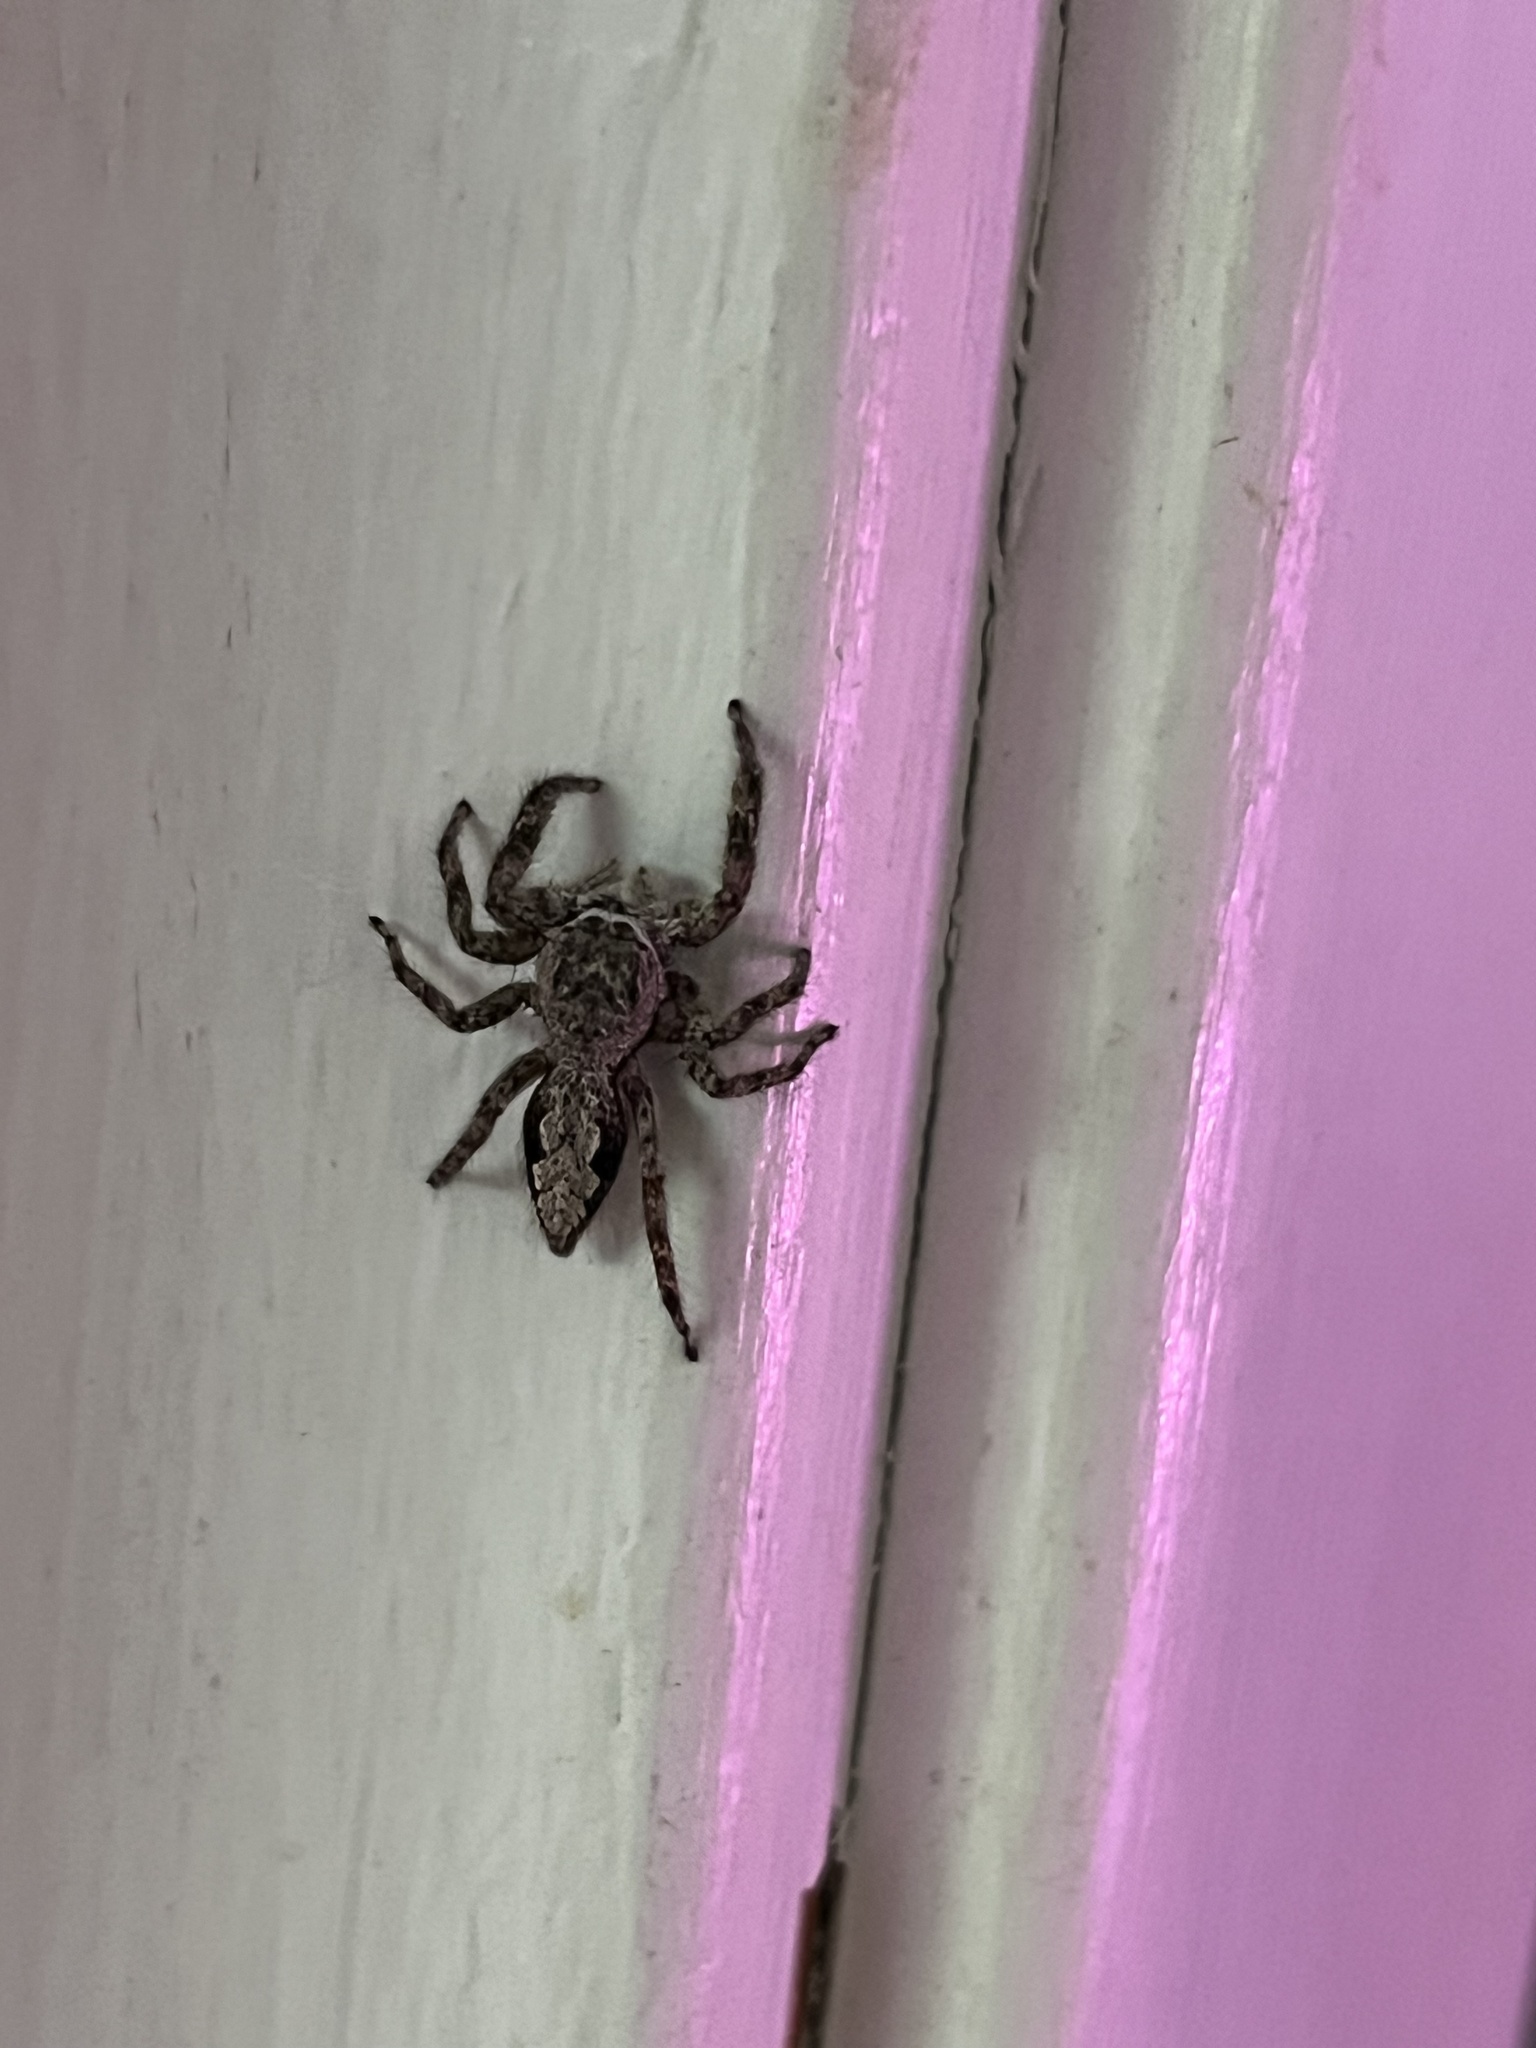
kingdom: Animalia
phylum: Arthropoda
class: Arachnida
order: Araneae
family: Salticidae
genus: Platycryptus
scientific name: Platycryptus undatus
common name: Tan jumping spider
